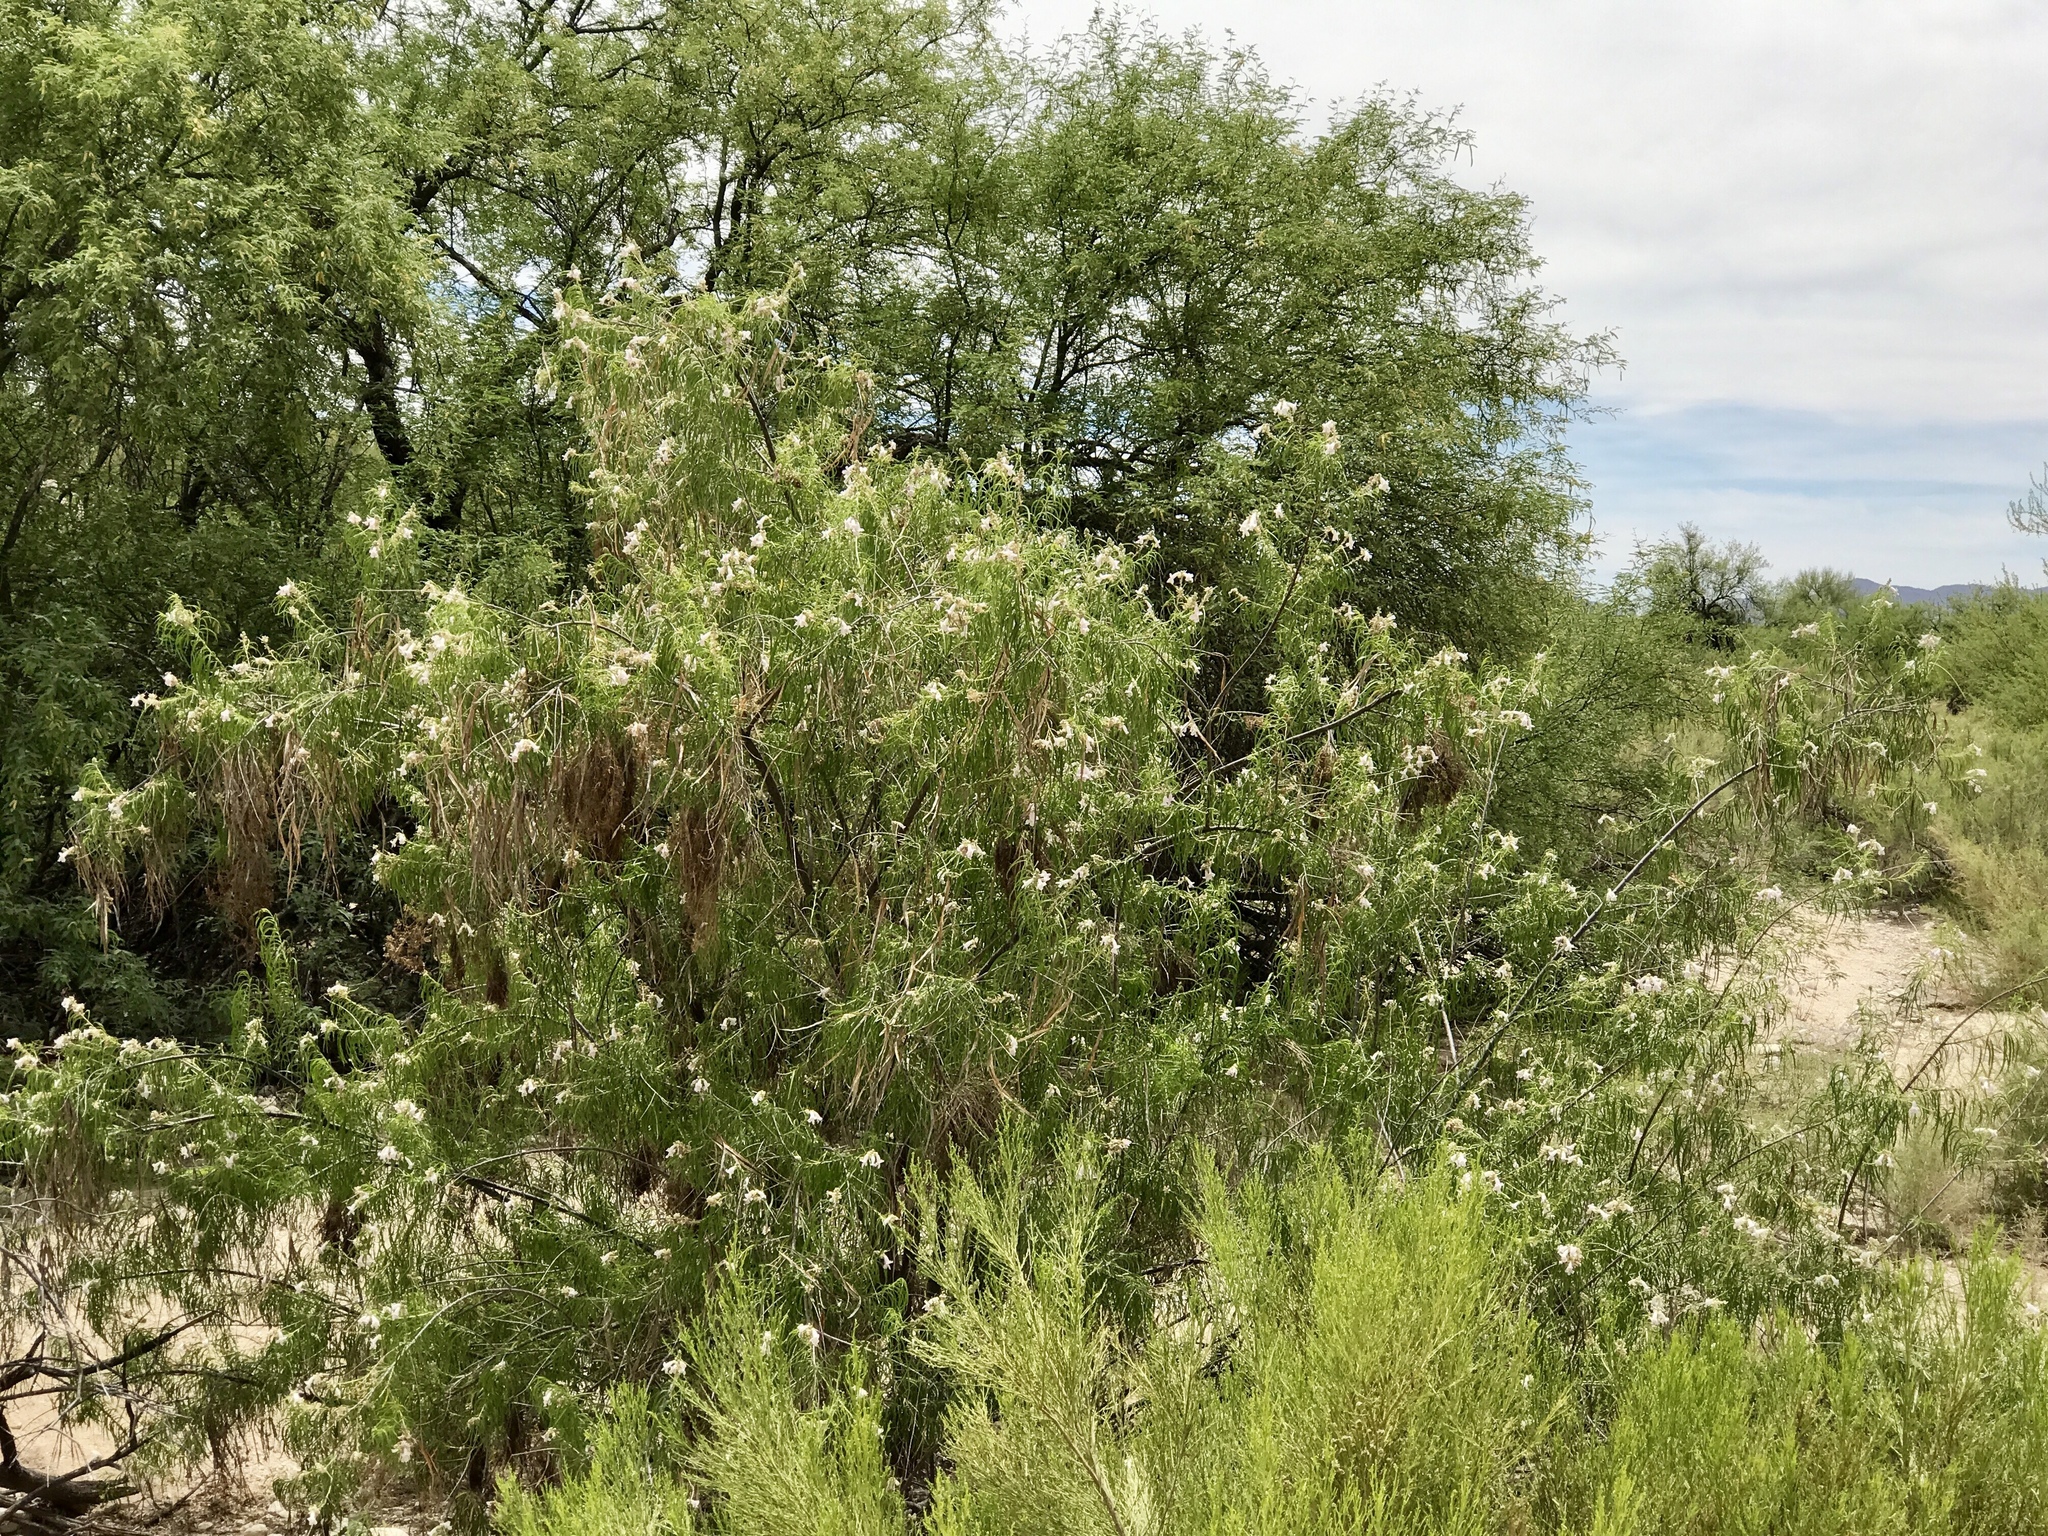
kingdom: Plantae
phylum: Tracheophyta
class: Magnoliopsida
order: Lamiales
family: Bignoniaceae
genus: Chilopsis
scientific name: Chilopsis linearis
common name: Desert-willow
